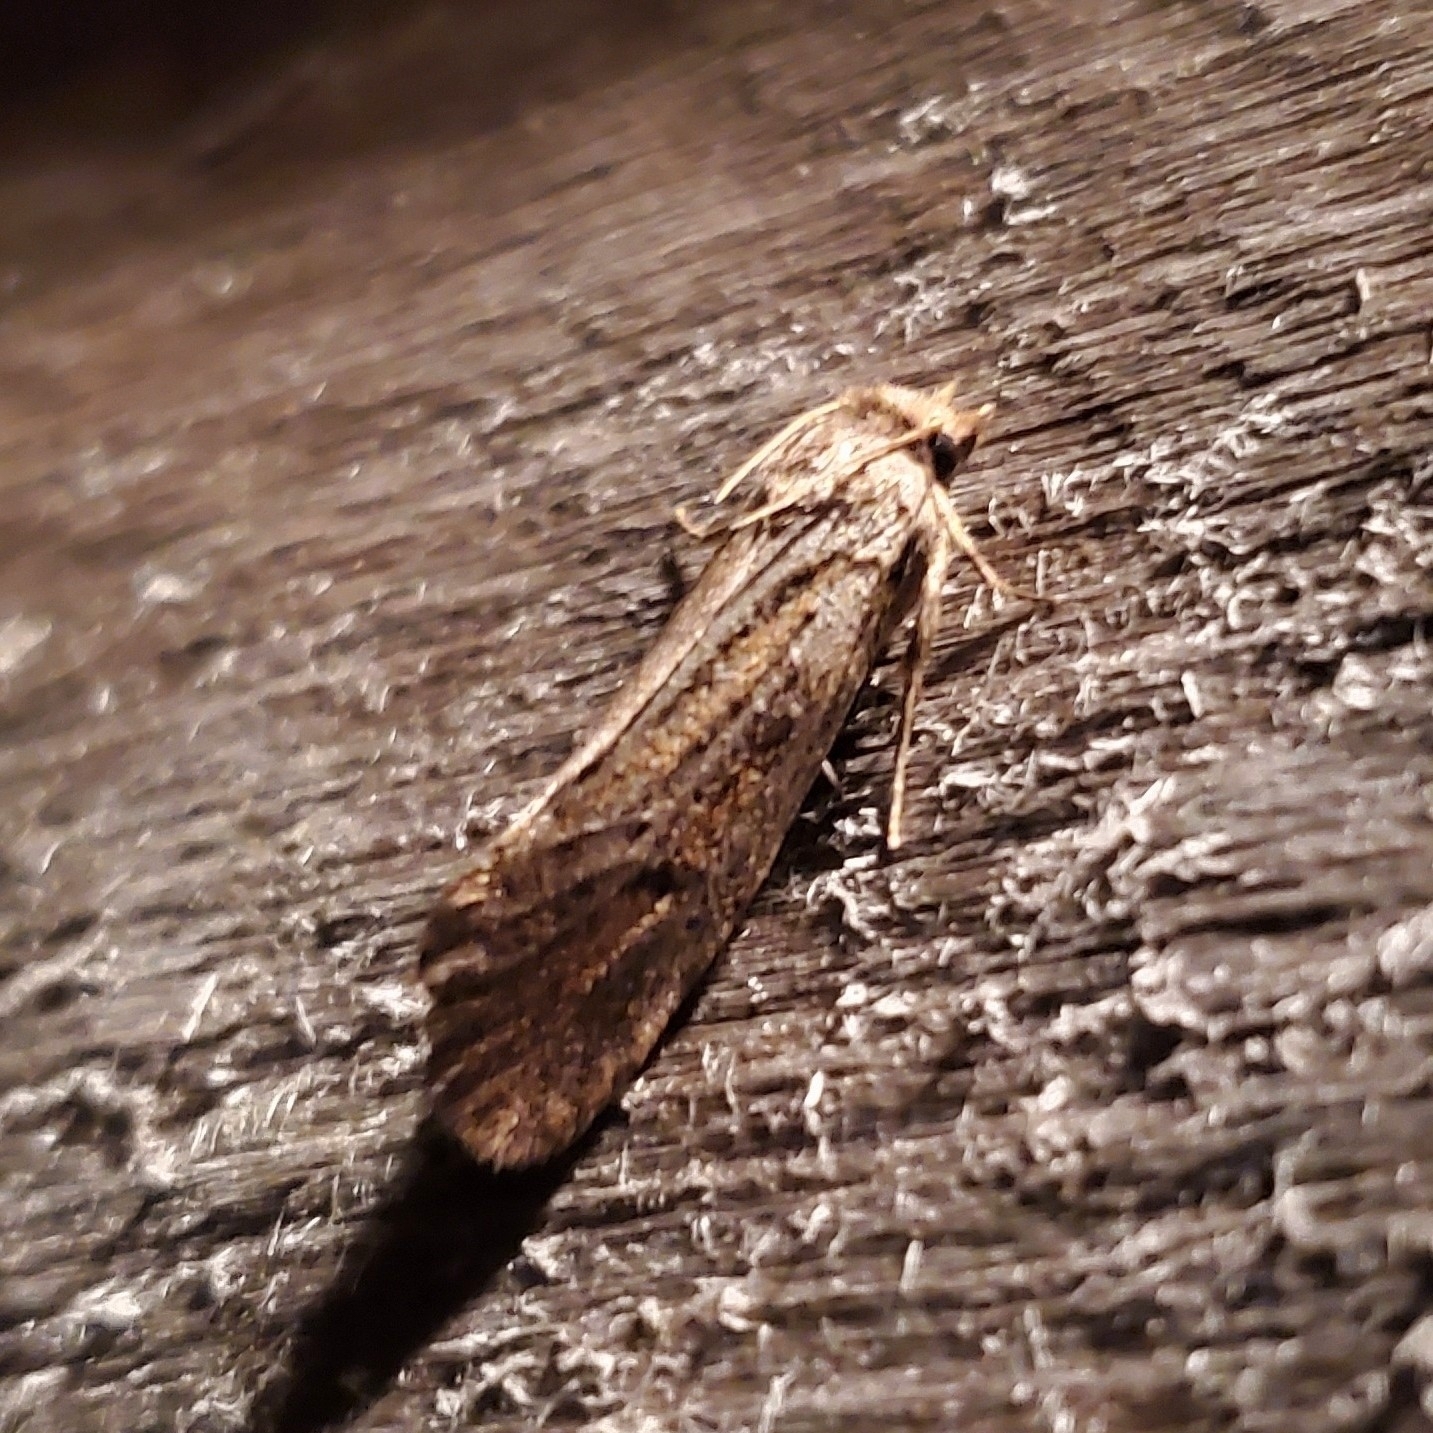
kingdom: Animalia
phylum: Arthropoda
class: Insecta
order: Lepidoptera
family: Tineidae
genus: Acrolophus
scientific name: Acrolophus popeanella
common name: Clemens' grass tubeworm moth
